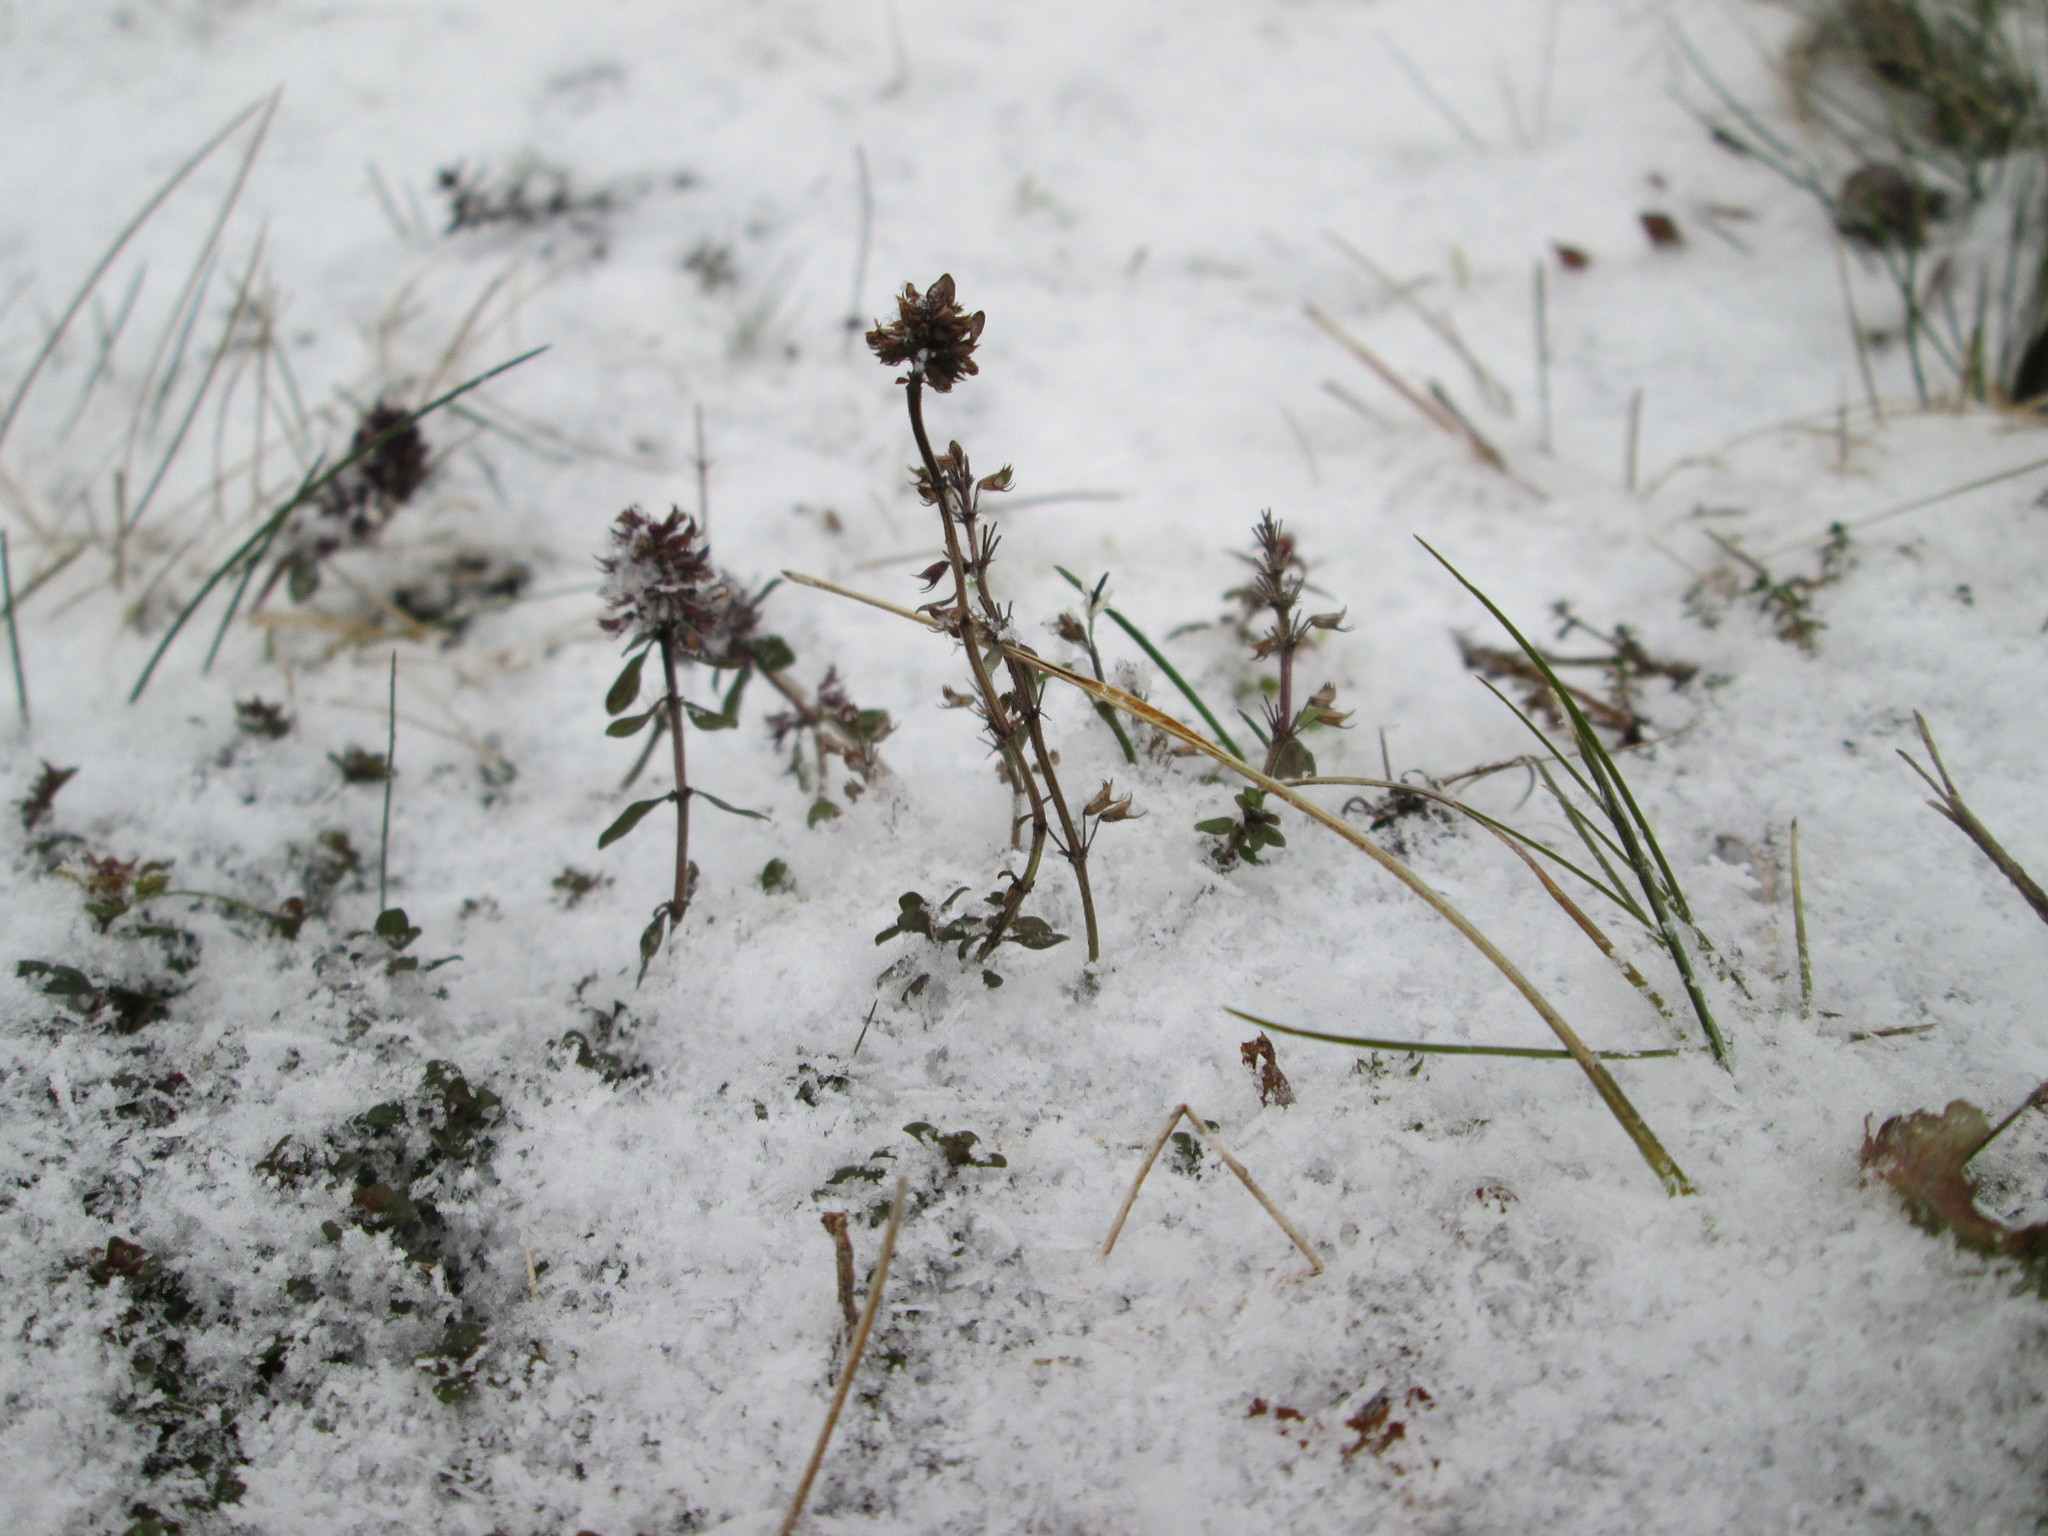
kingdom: Plantae
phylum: Tracheophyta
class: Magnoliopsida
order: Lamiales
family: Lamiaceae
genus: Thymus
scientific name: Thymus pulegioides
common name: Large thyme
